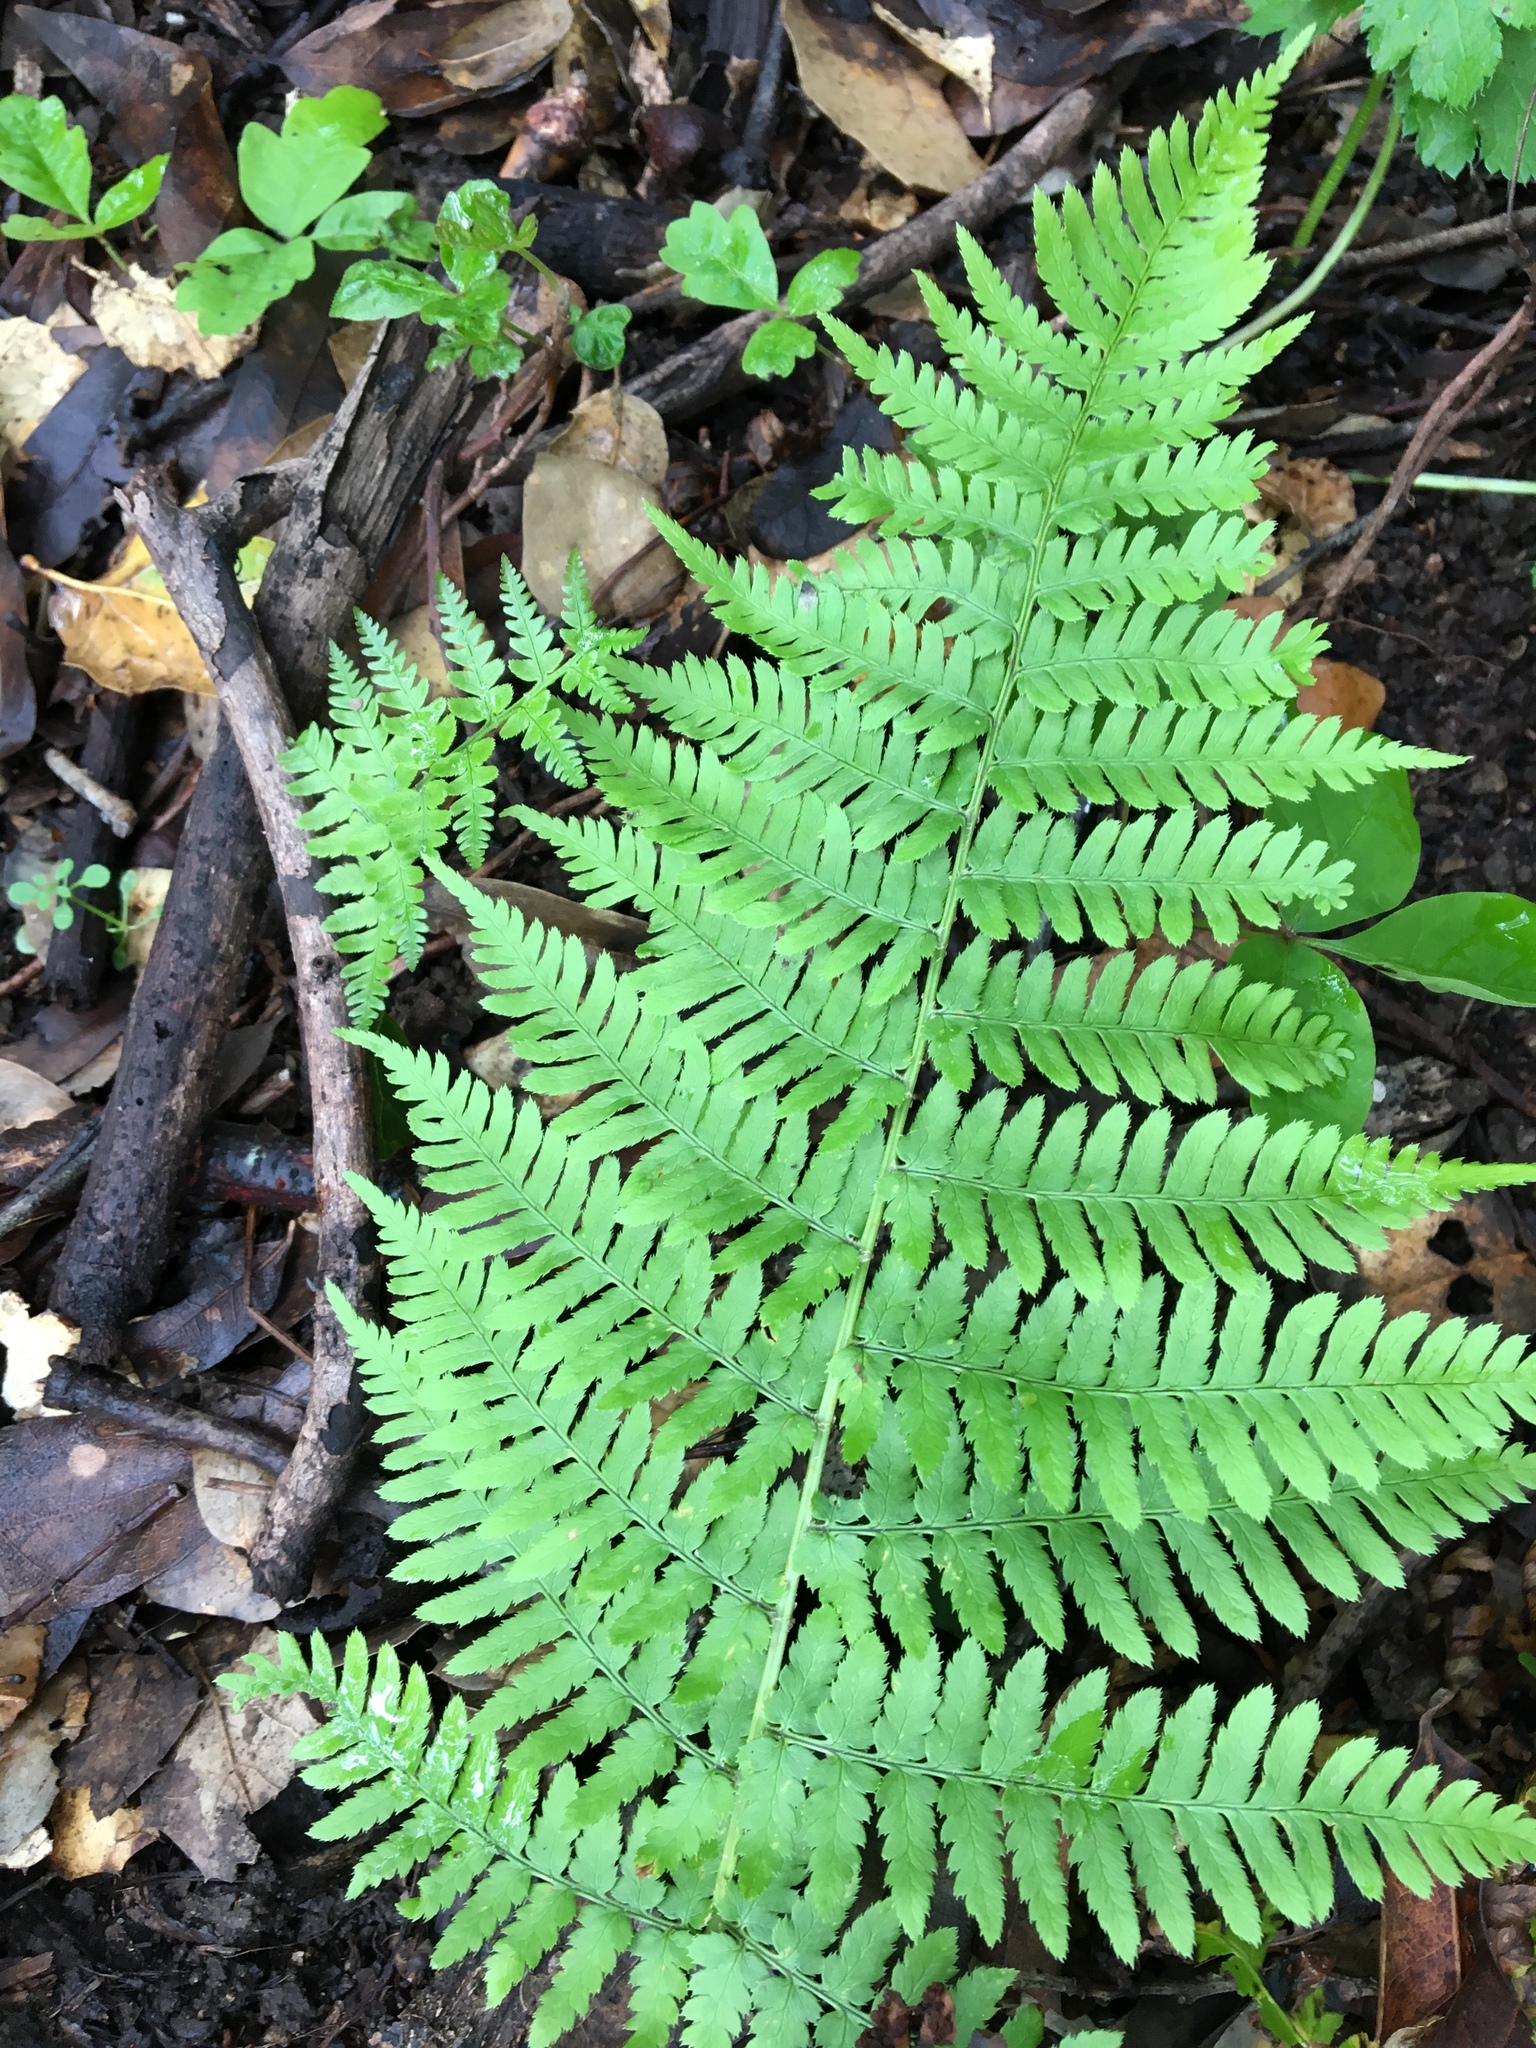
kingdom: Plantae
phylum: Tracheophyta
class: Polypodiopsida
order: Polypodiales
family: Dryopteridaceae
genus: Dryopteris
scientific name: Dryopteris arguta
